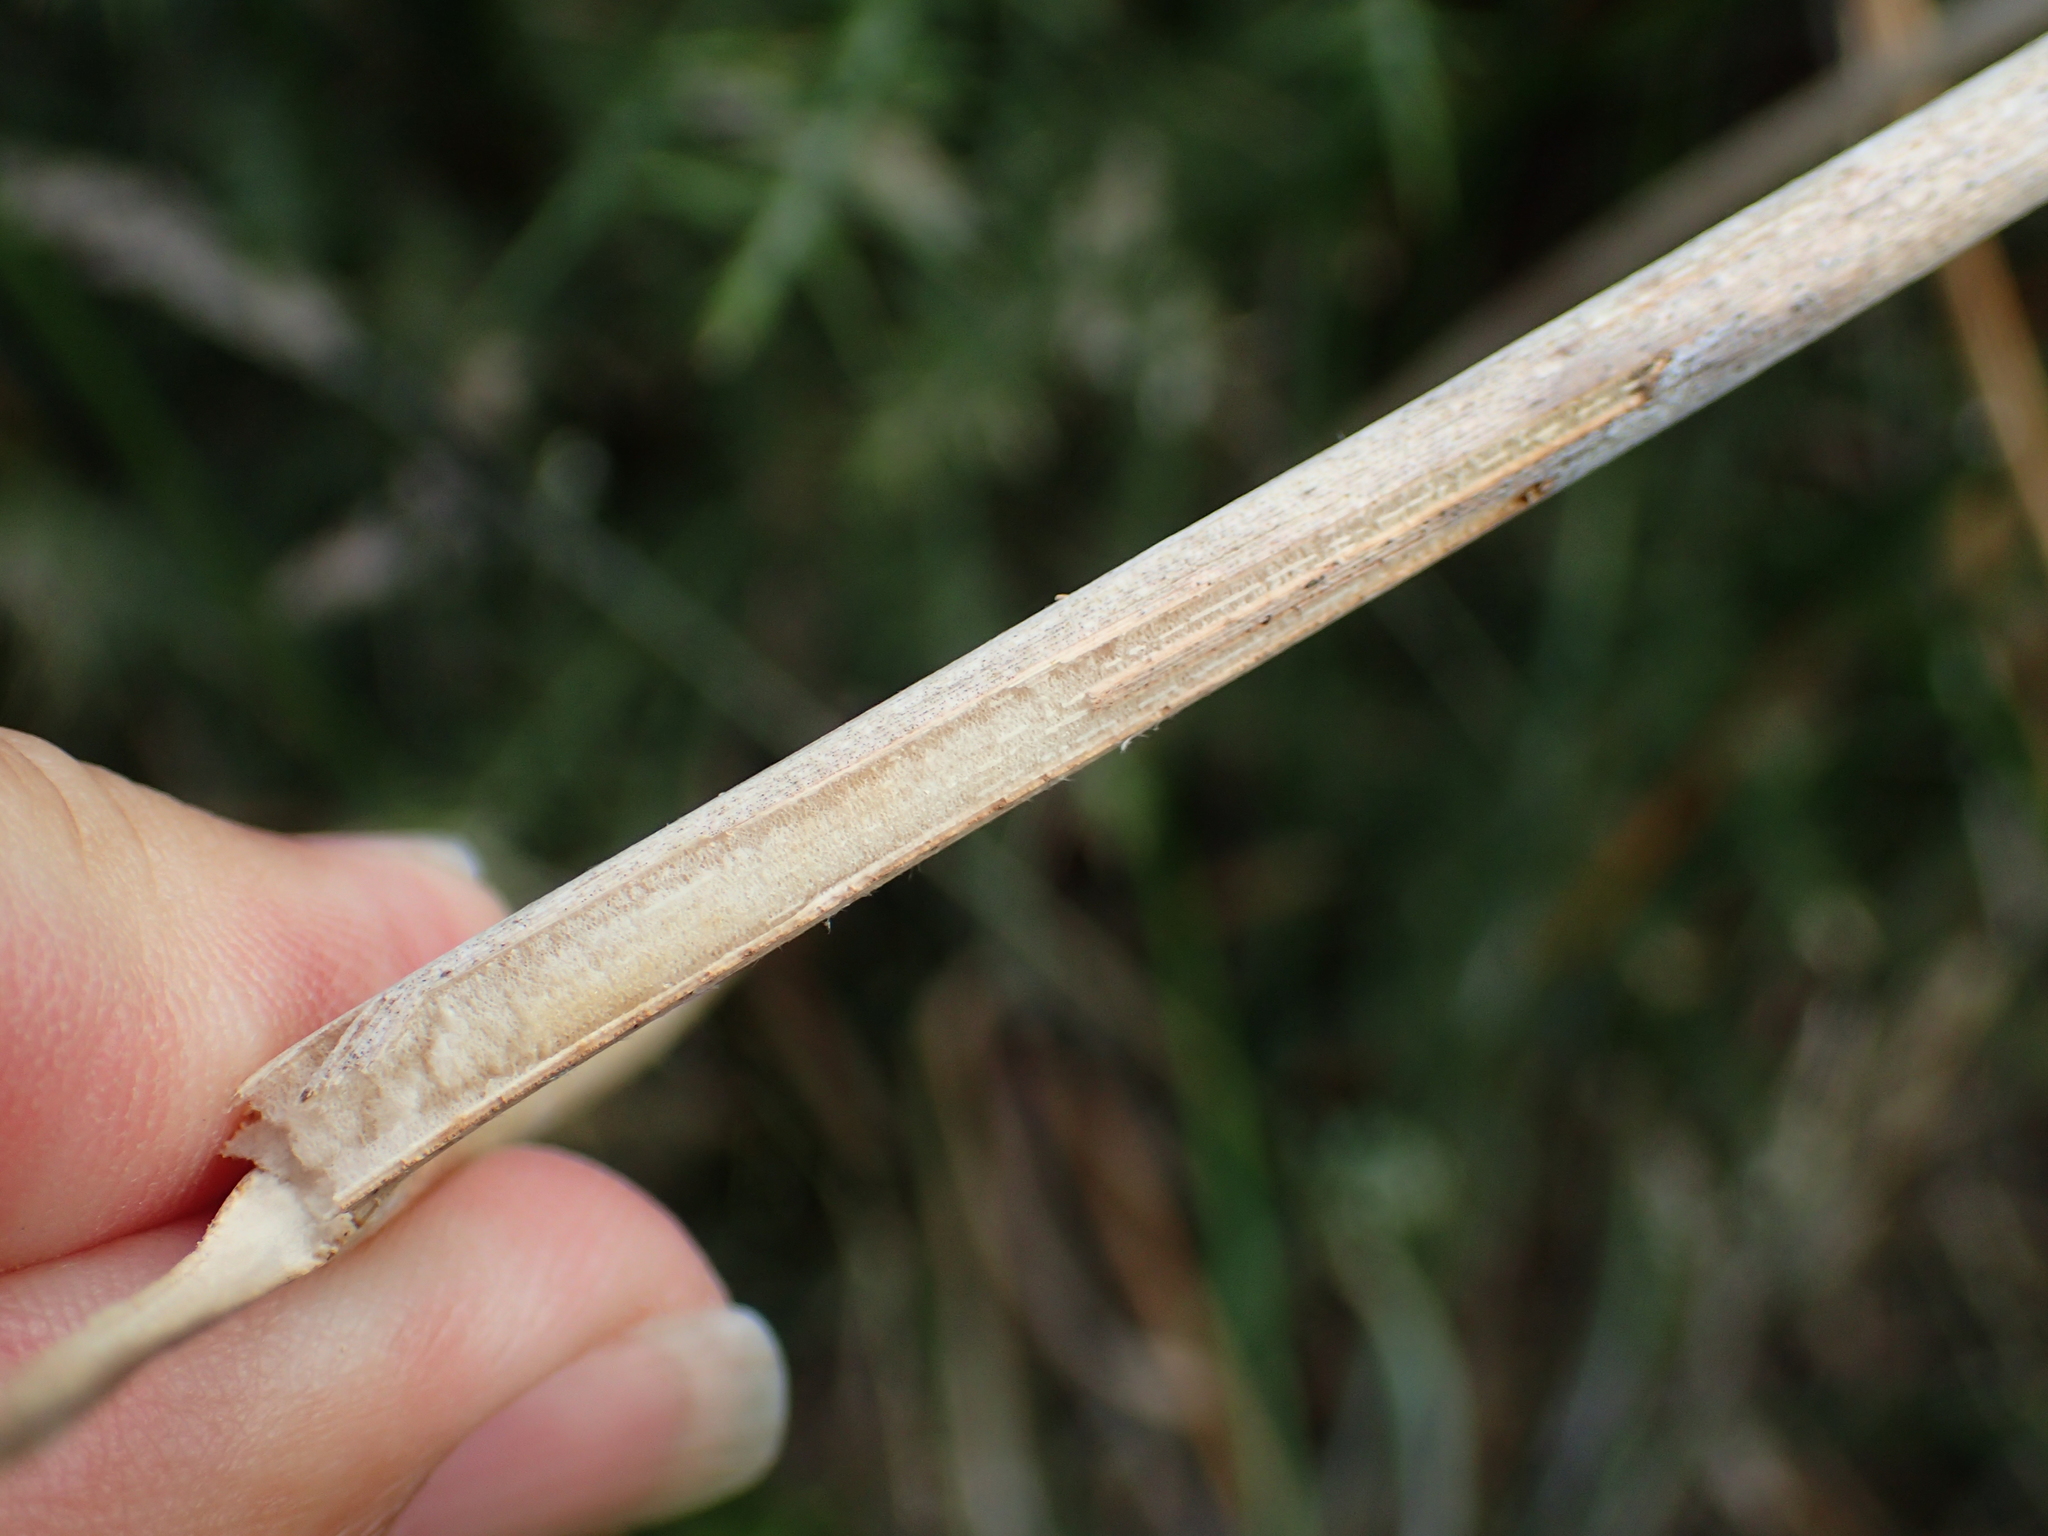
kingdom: Plantae
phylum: Tracheophyta
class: Liliopsida
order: Poales
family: Juncaceae
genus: Juncus
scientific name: Juncus effusus
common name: Soft rush
